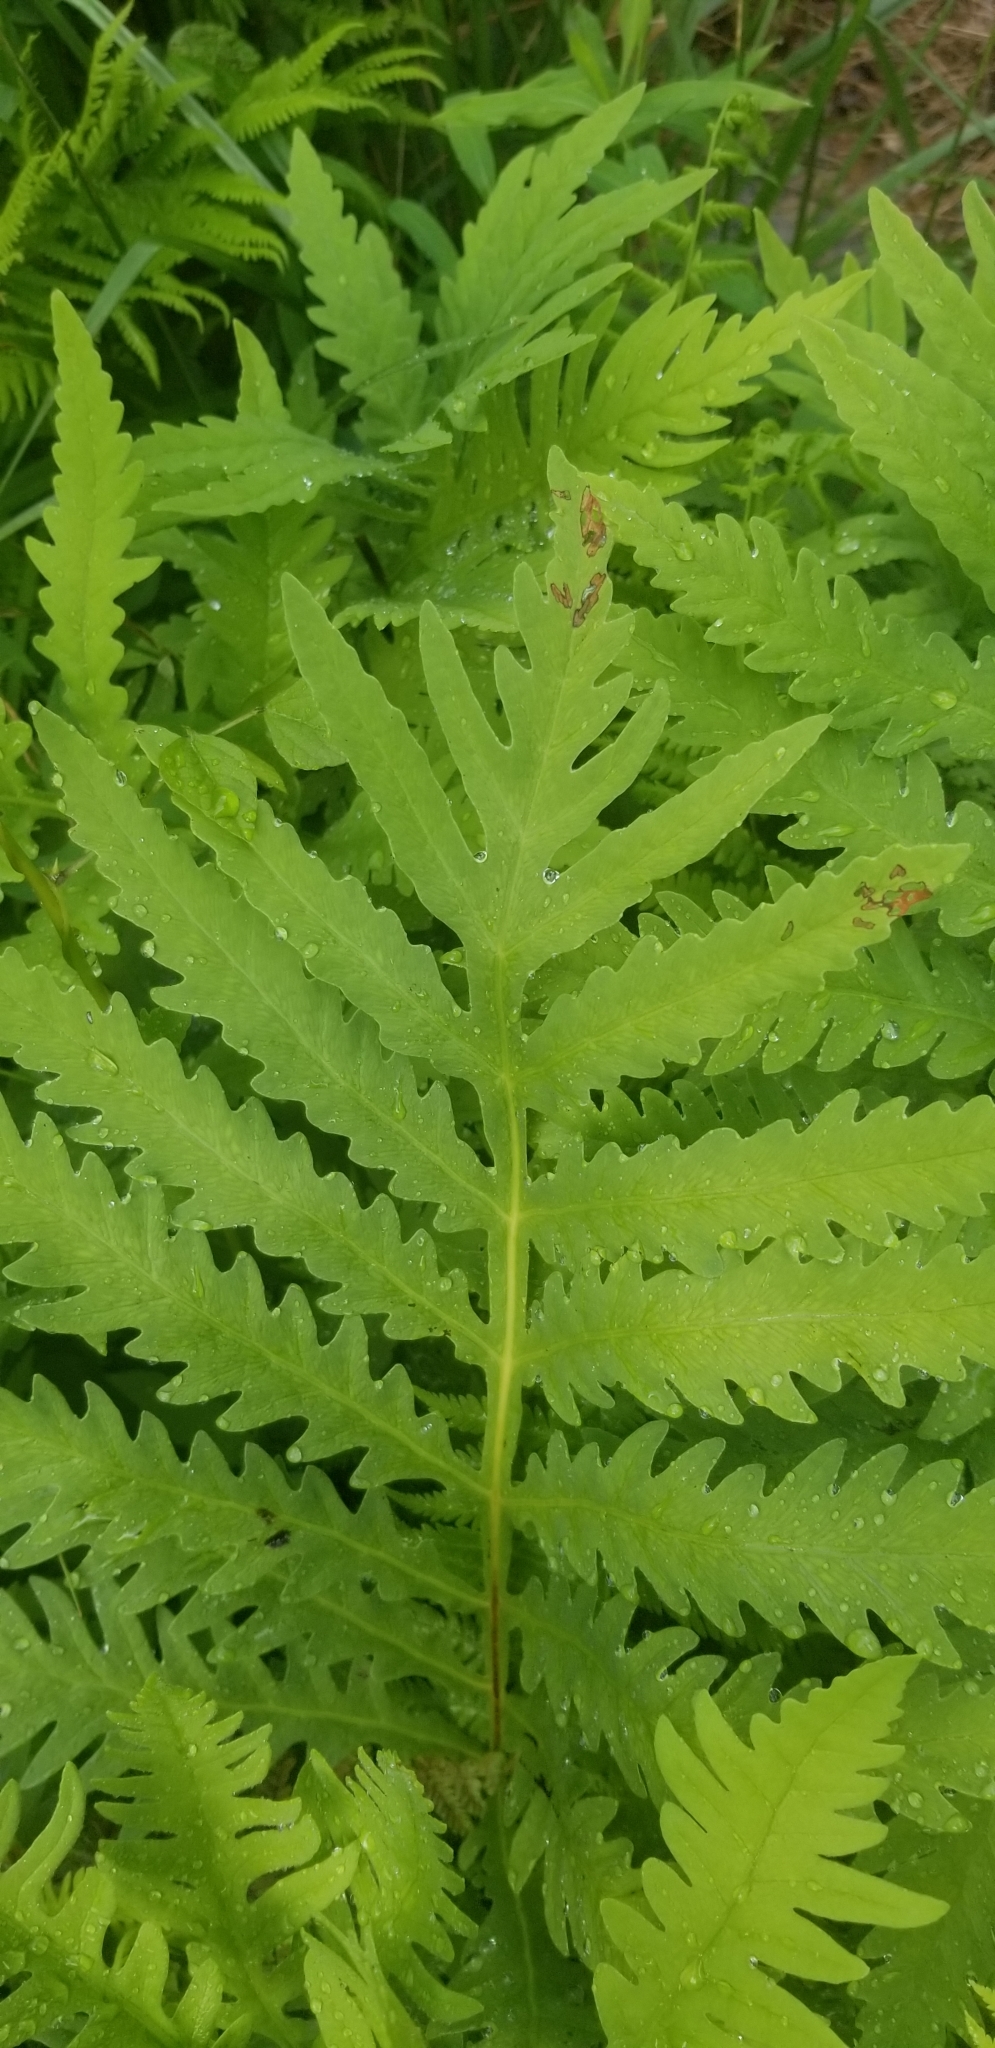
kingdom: Plantae
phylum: Tracheophyta
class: Polypodiopsida
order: Polypodiales
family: Onocleaceae
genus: Onoclea
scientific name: Onoclea sensibilis
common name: Sensitive fern
